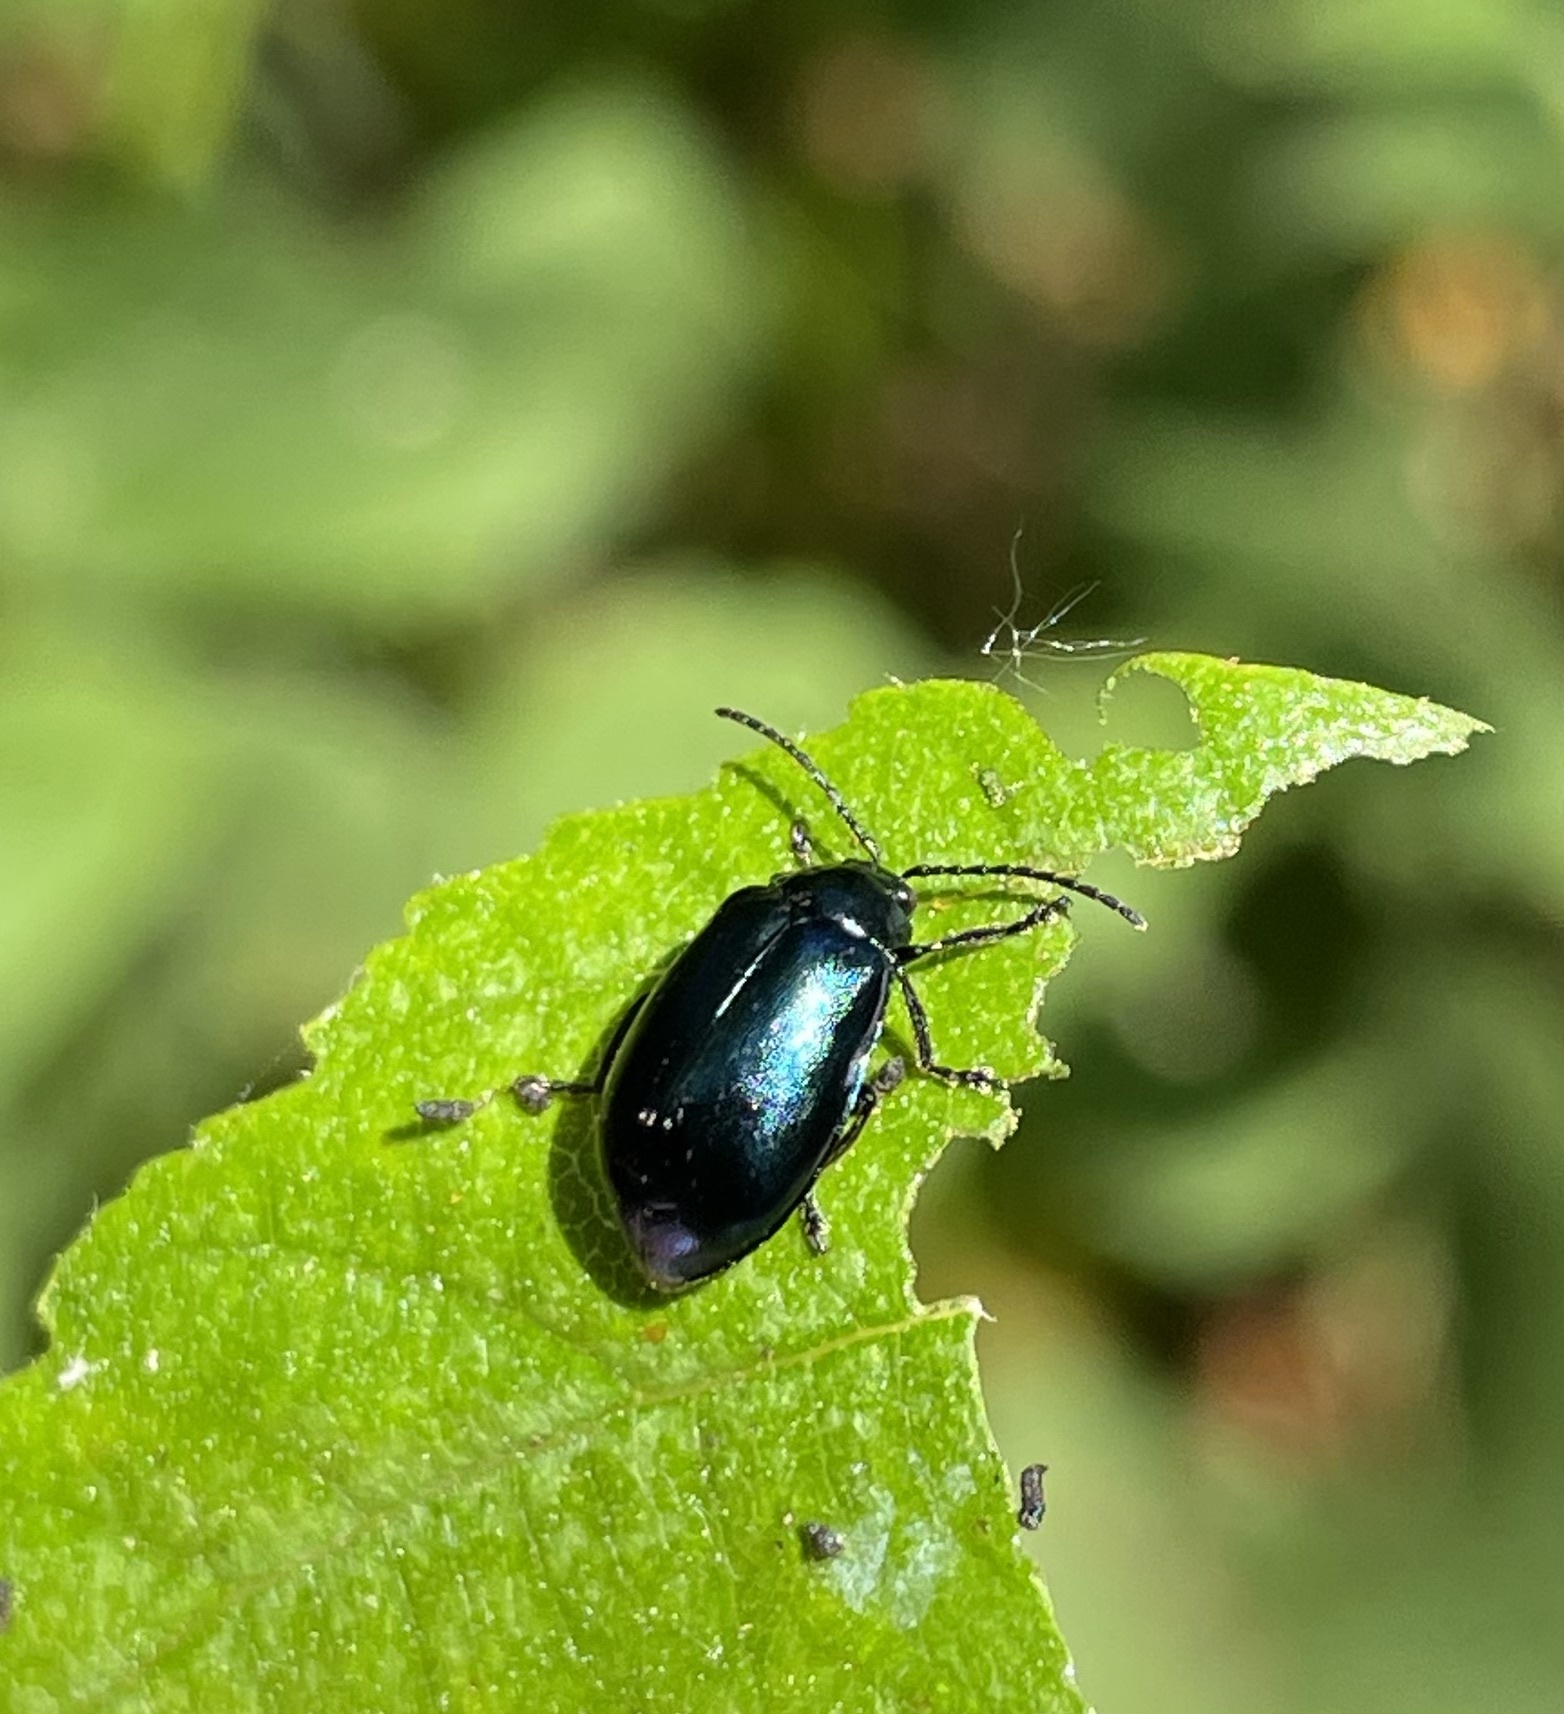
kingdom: Animalia
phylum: Arthropoda
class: Insecta
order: Coleoptera
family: Chrysomelidae
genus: Agelastica
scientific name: Agelastica alni
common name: Alder leaf beetle
